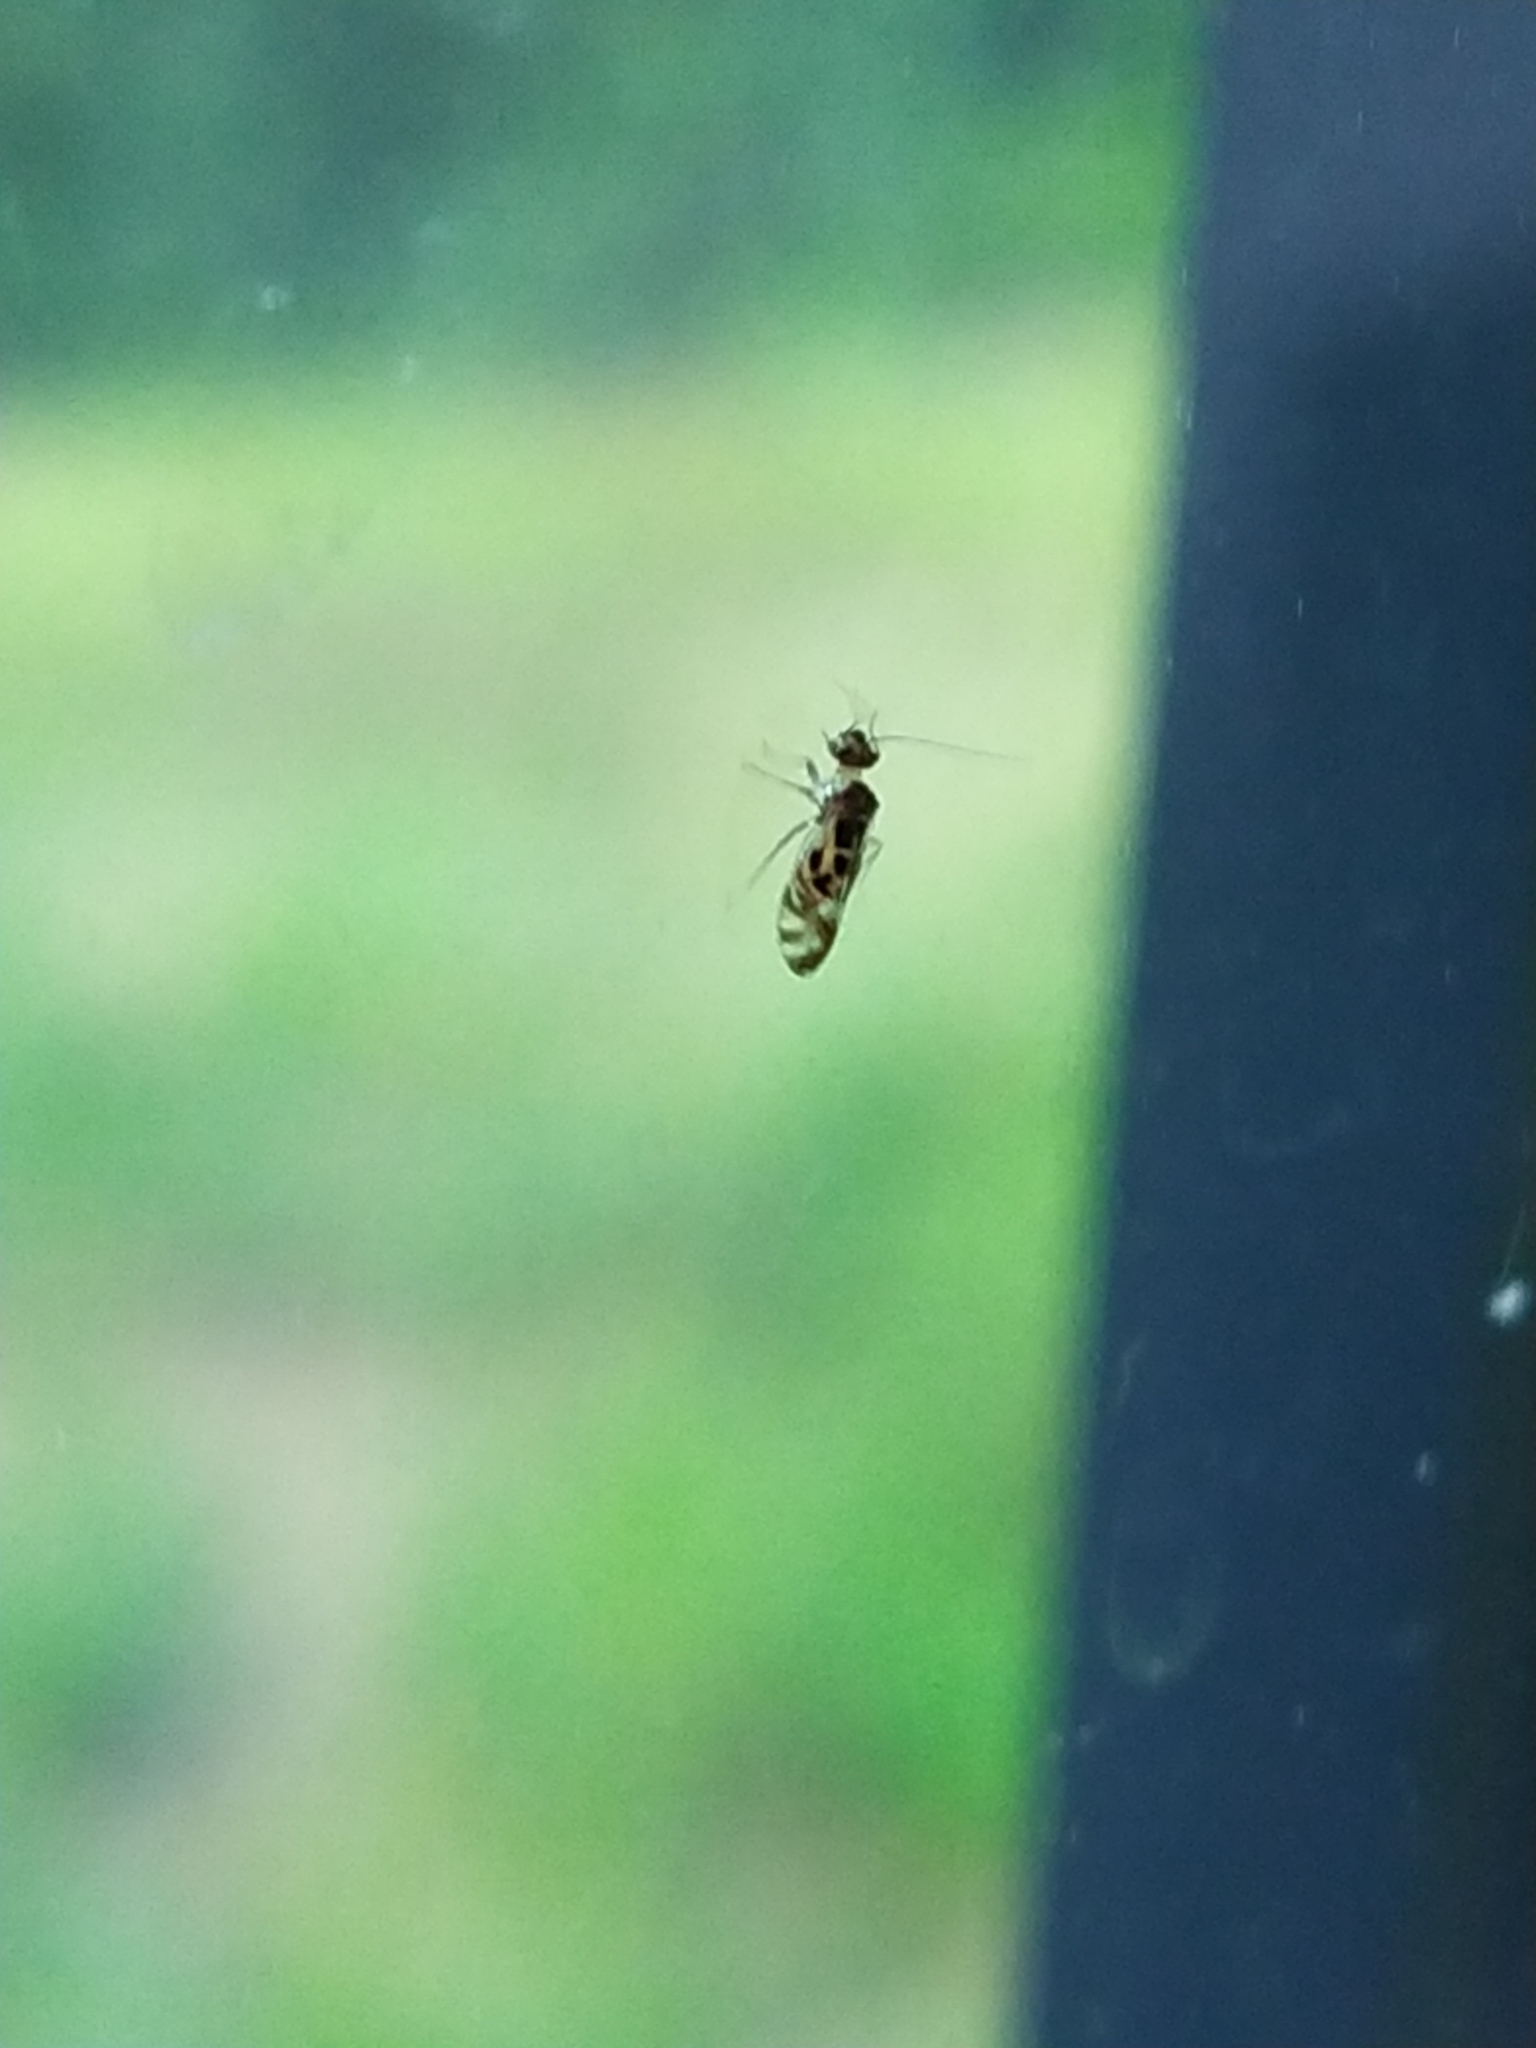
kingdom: Animalia
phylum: Arthropoda
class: Insecta
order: Psocodea
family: Stenopsocidae
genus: Graphopsocus
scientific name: Graphopsocus cruciatus
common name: Lizard bark louse
